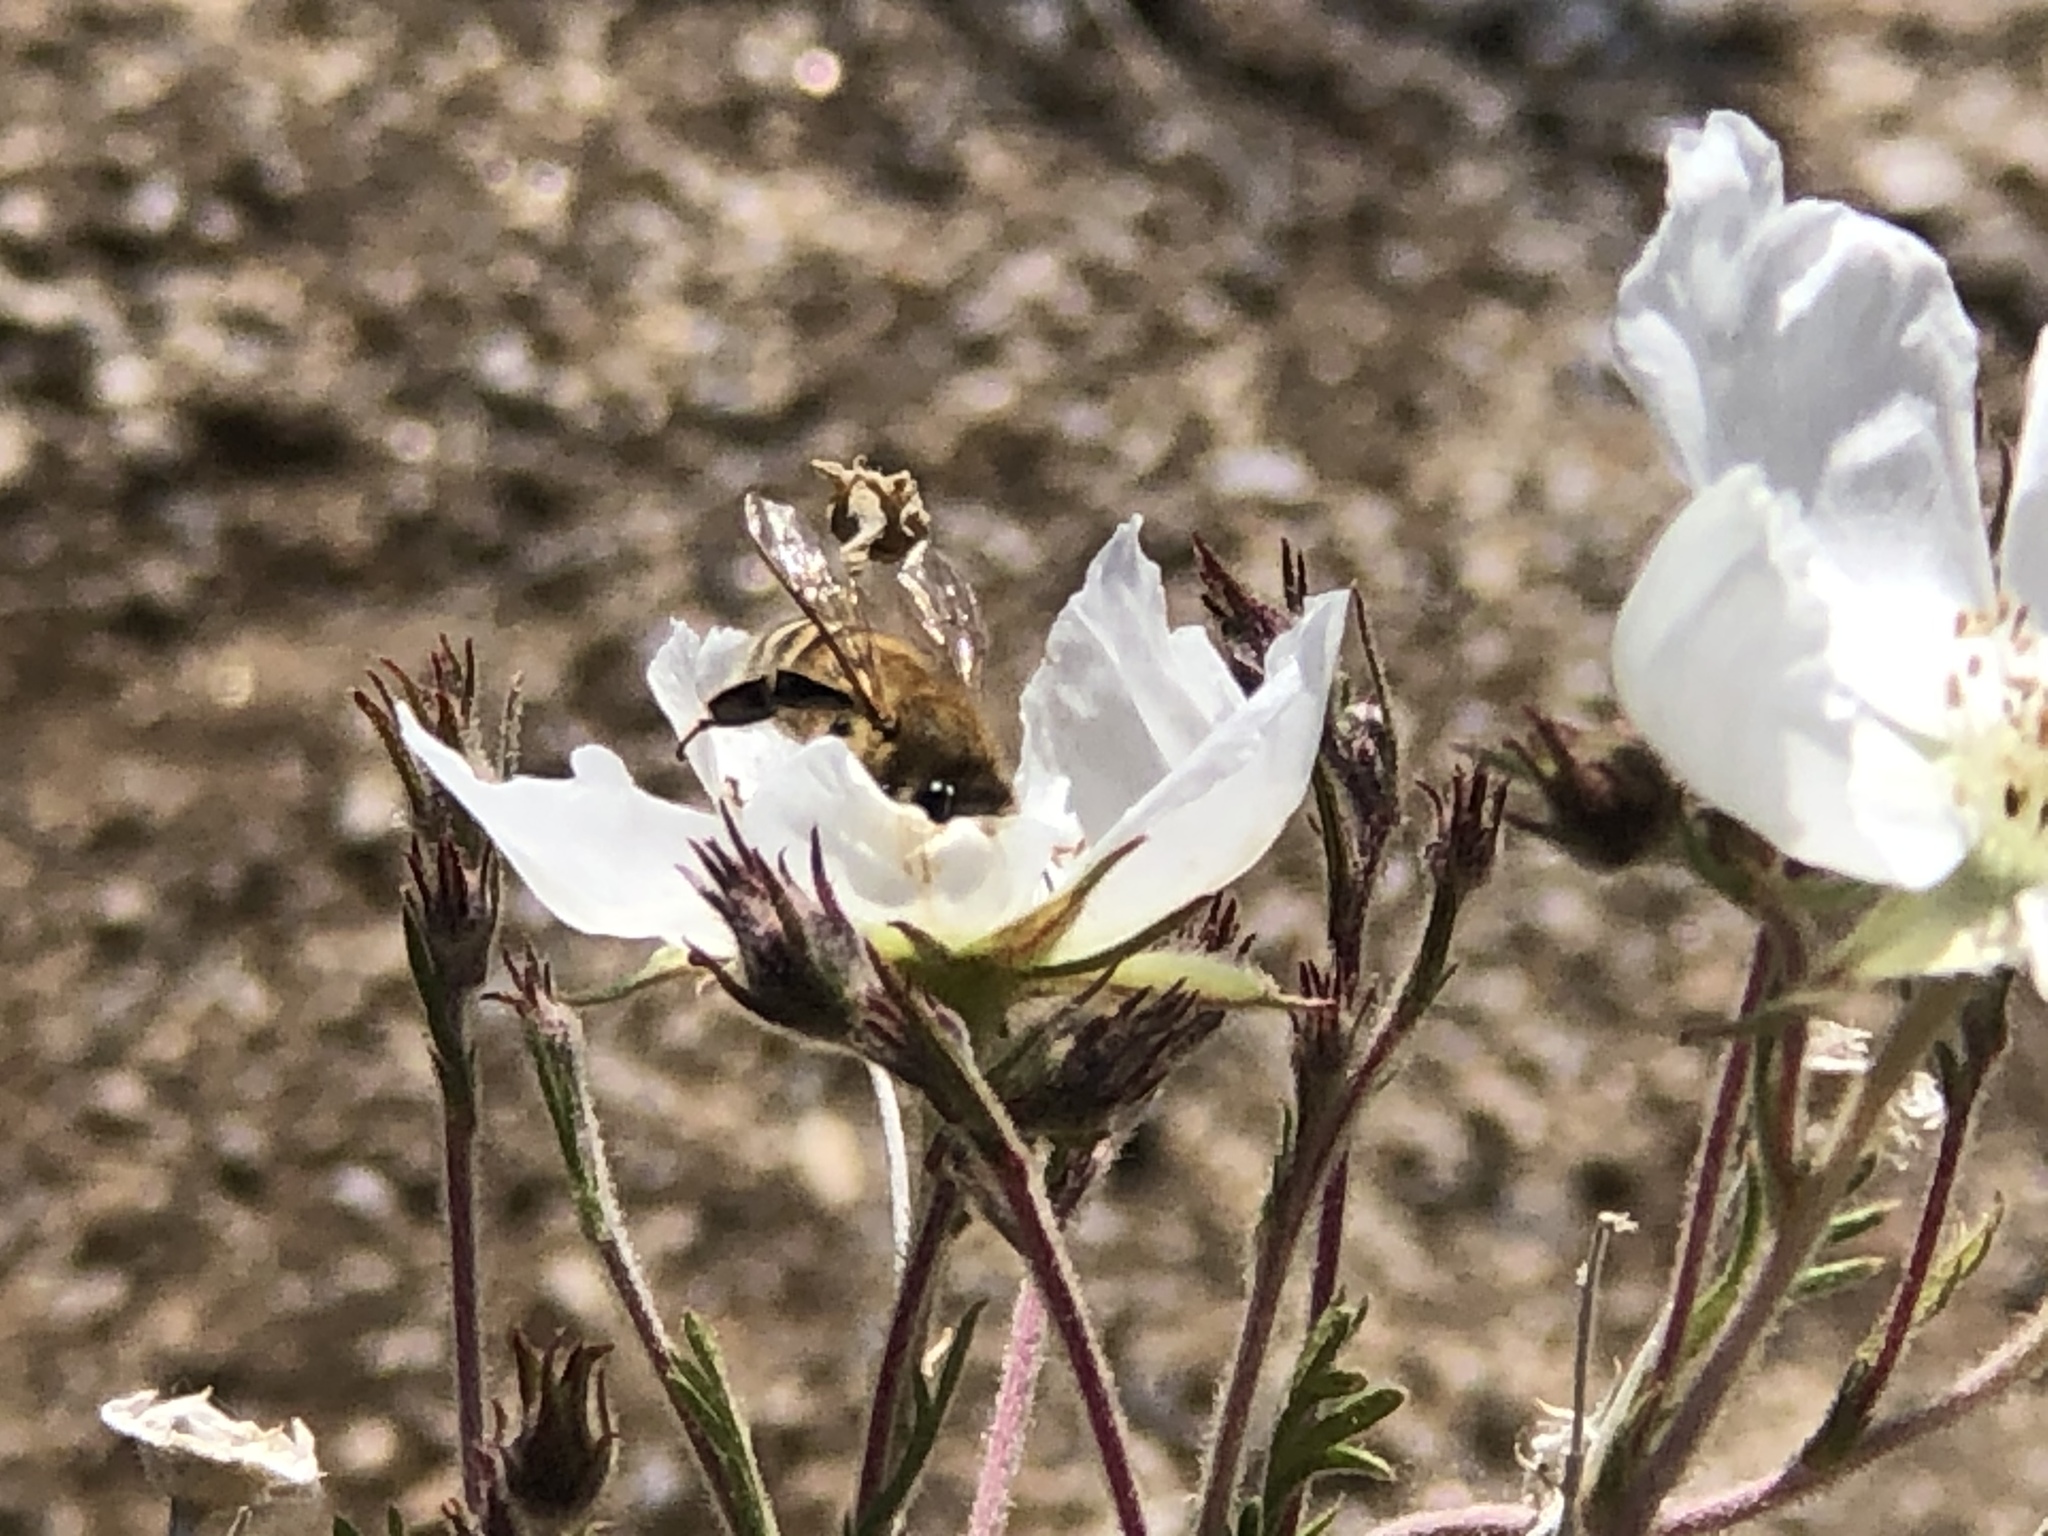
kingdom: Animalia
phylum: Arthropoda
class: Insecta
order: Hymenoptera
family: Apidae
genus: Apis
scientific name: Apis mellifera
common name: Honey bee
